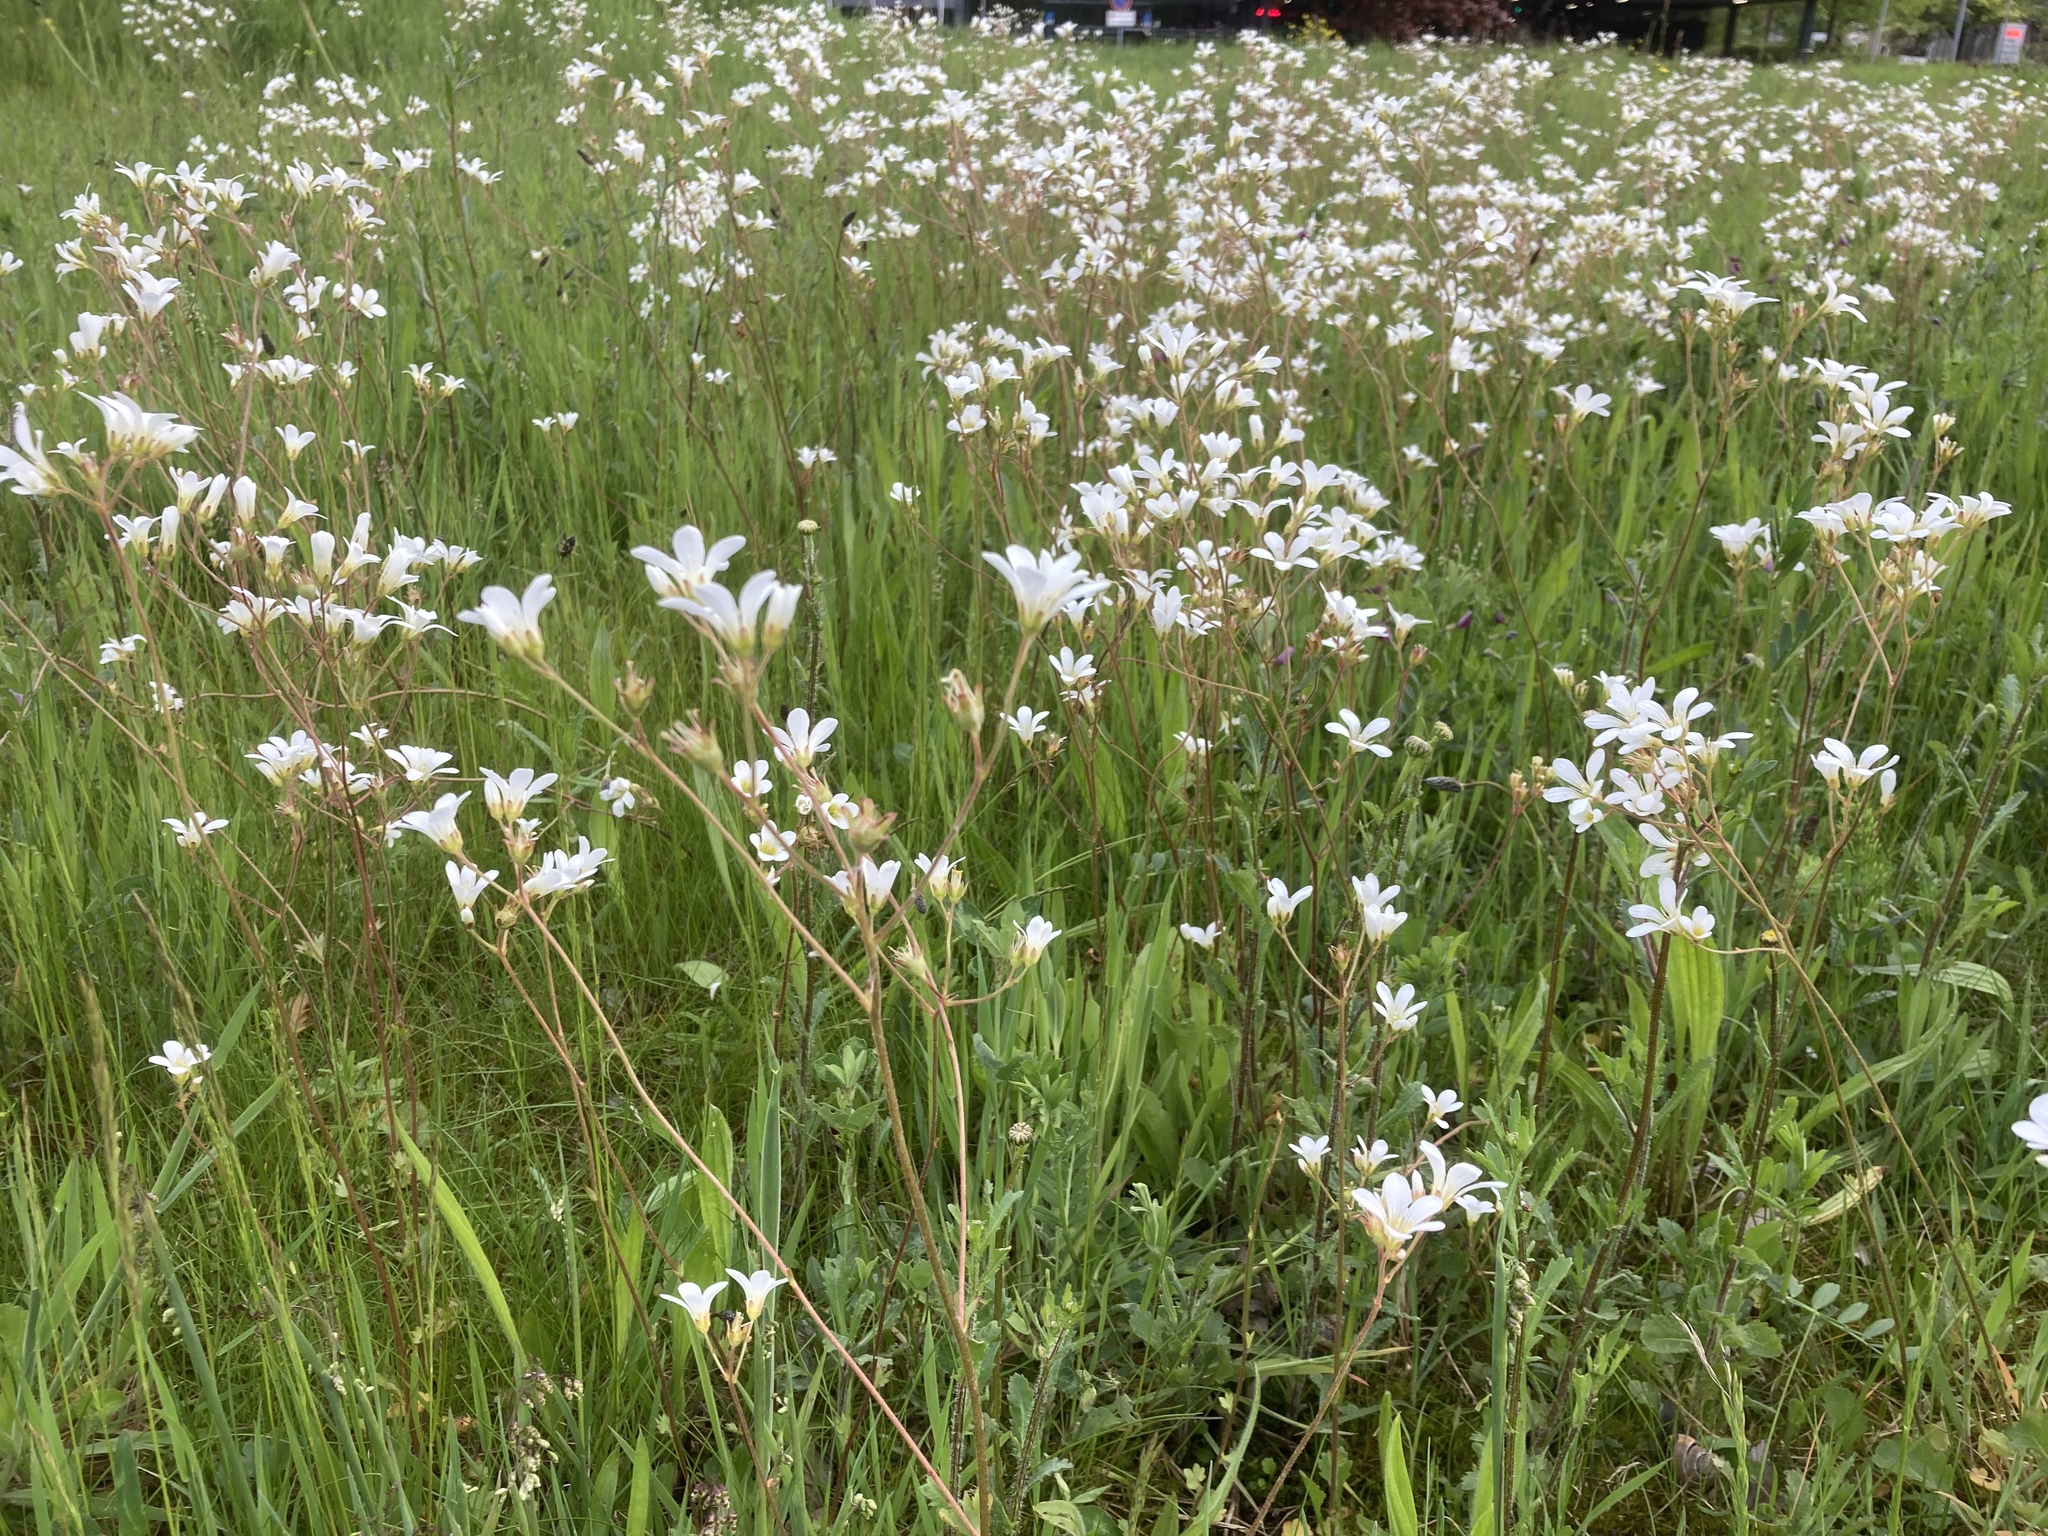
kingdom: Plantae
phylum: Tracheophyta
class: Magnoliopsida
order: Saxifragales
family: Saxifragaceae
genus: Saxifraga
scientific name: Saxifraga granulata
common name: Meadow saxifrage
